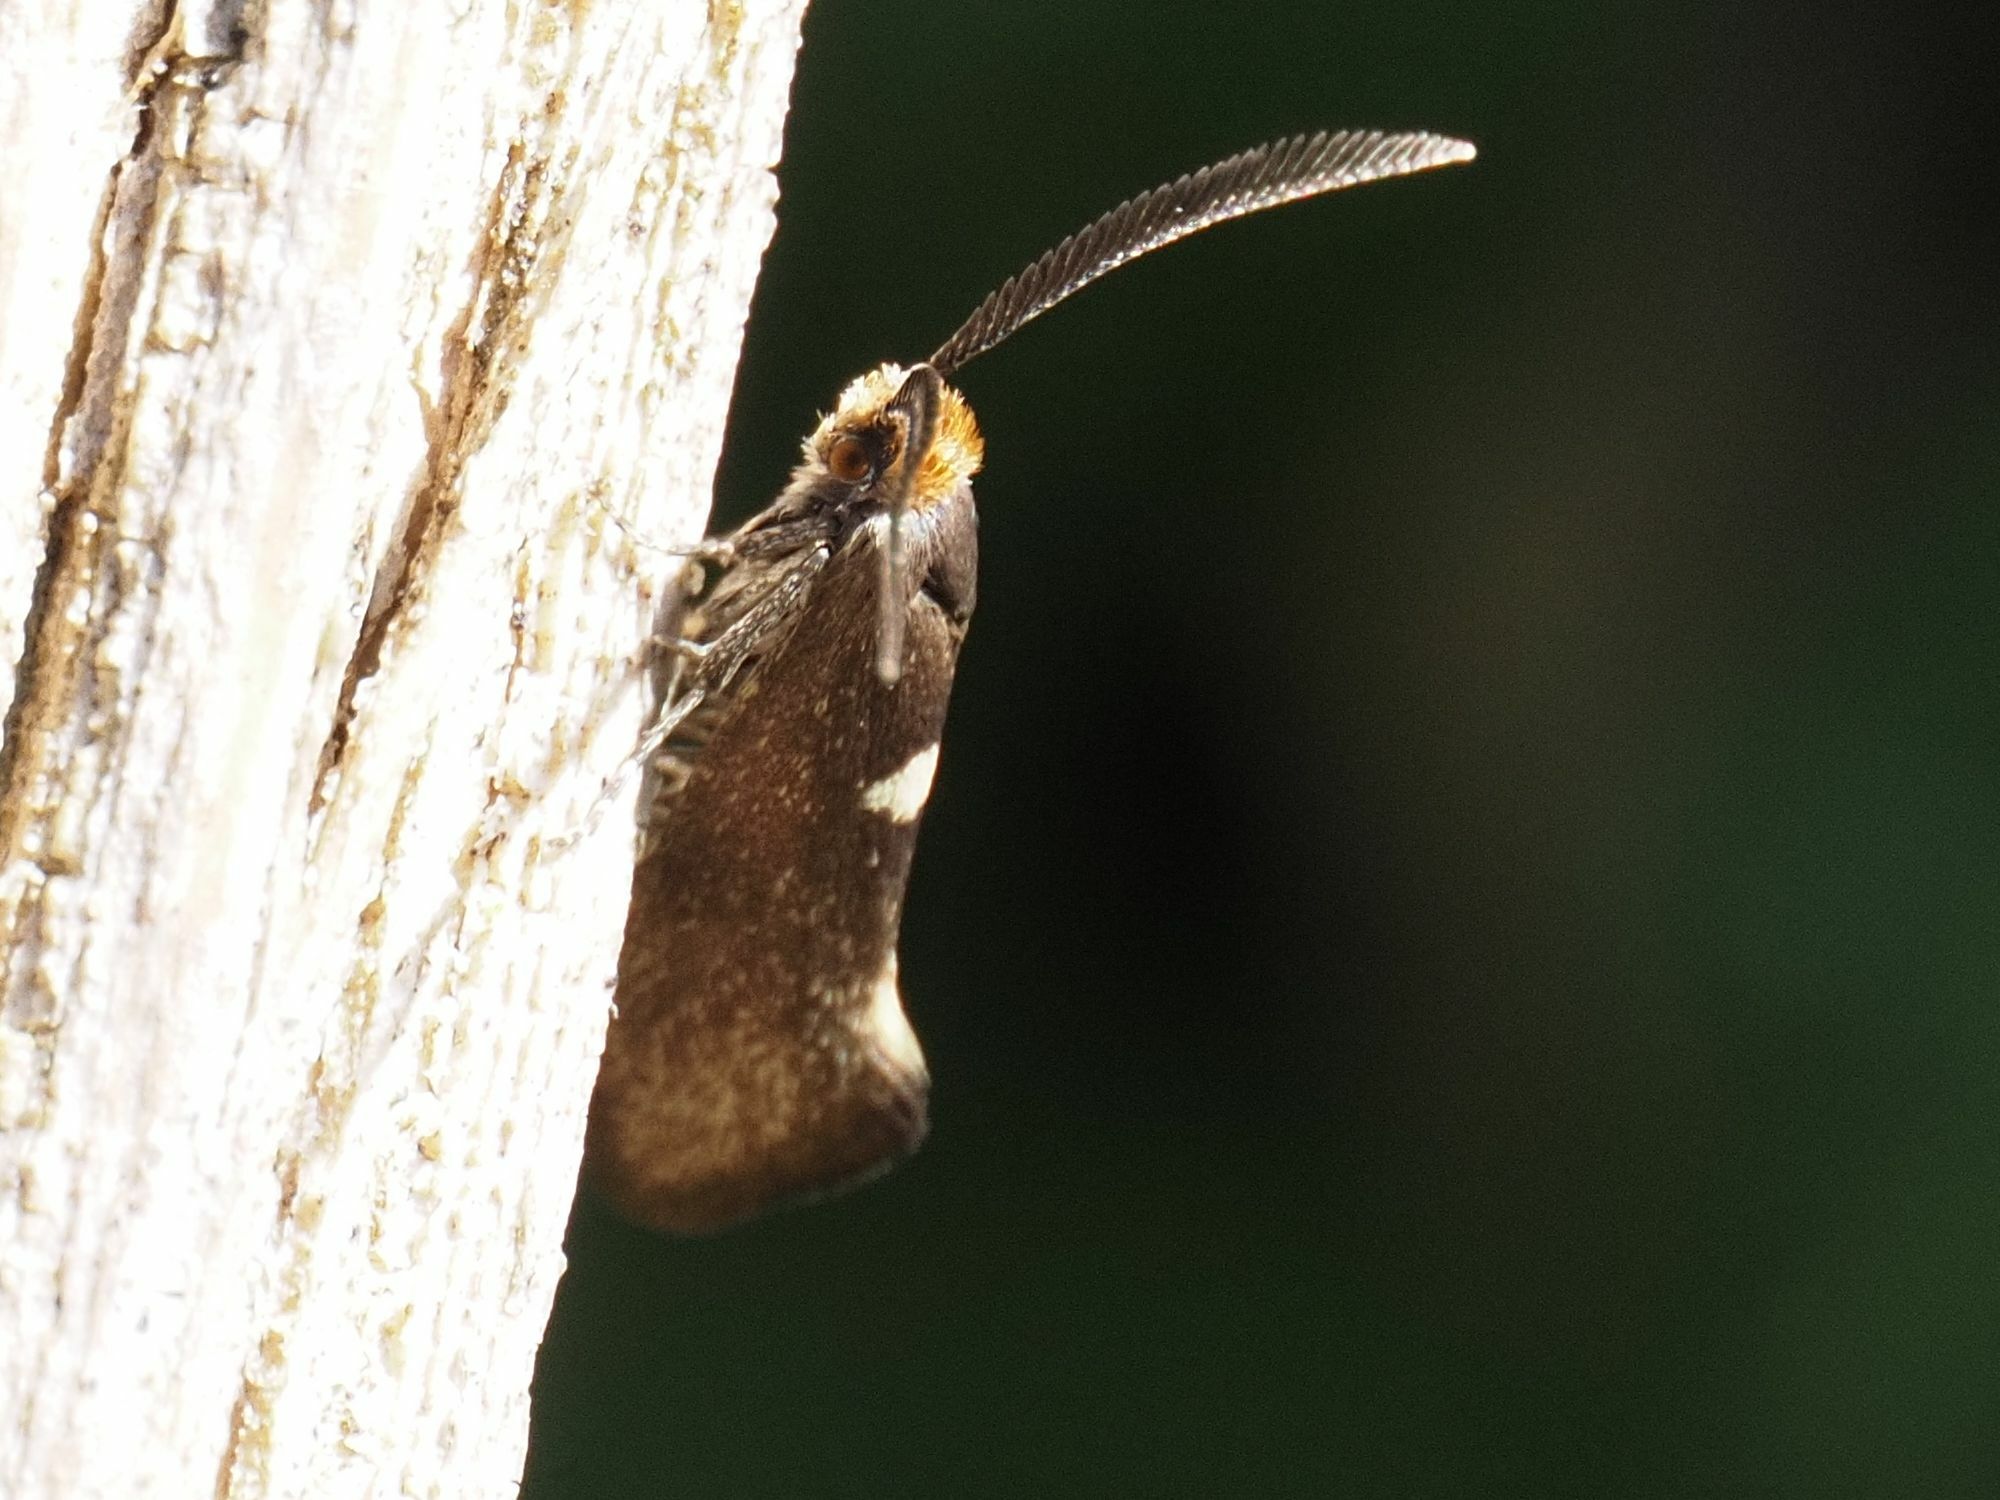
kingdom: Animalia
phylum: Arthropoda
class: Insecta
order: Lepidoptera
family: Incurvariidae
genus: Incurvaria
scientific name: Incurvaria masculella
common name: Feathered leaf-cutter
